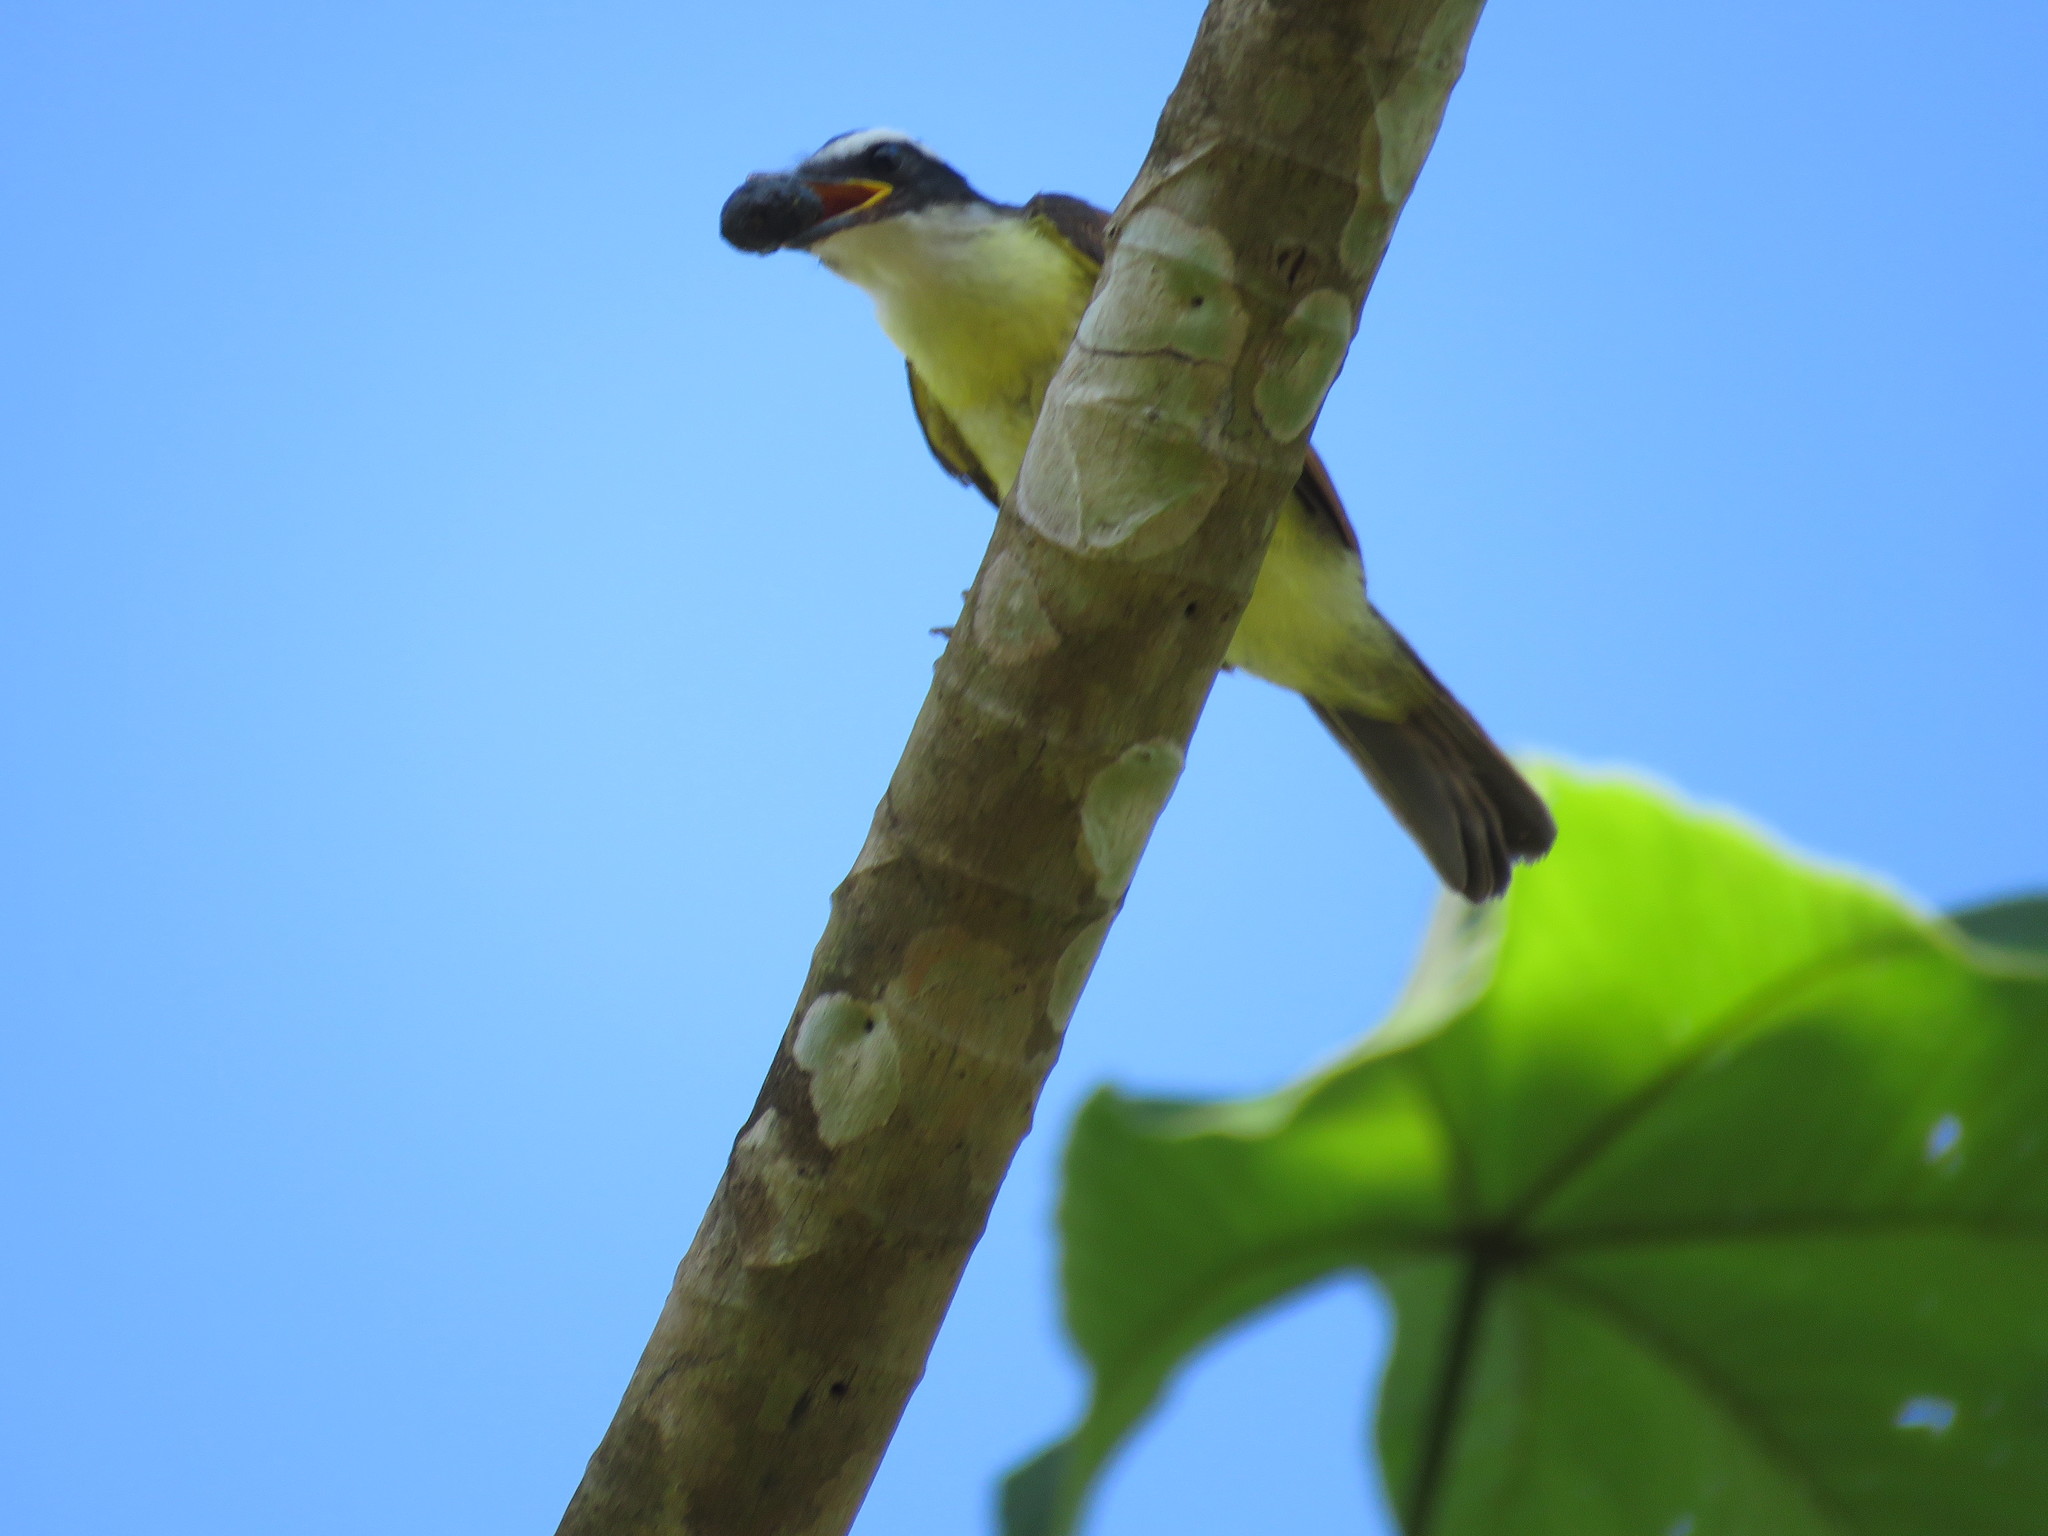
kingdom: Animalia
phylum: Chordata
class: Aves
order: Passeriformes
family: Tyrannidae
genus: Pitangus
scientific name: Pitangus sulphuratus
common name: Great kiskadee
